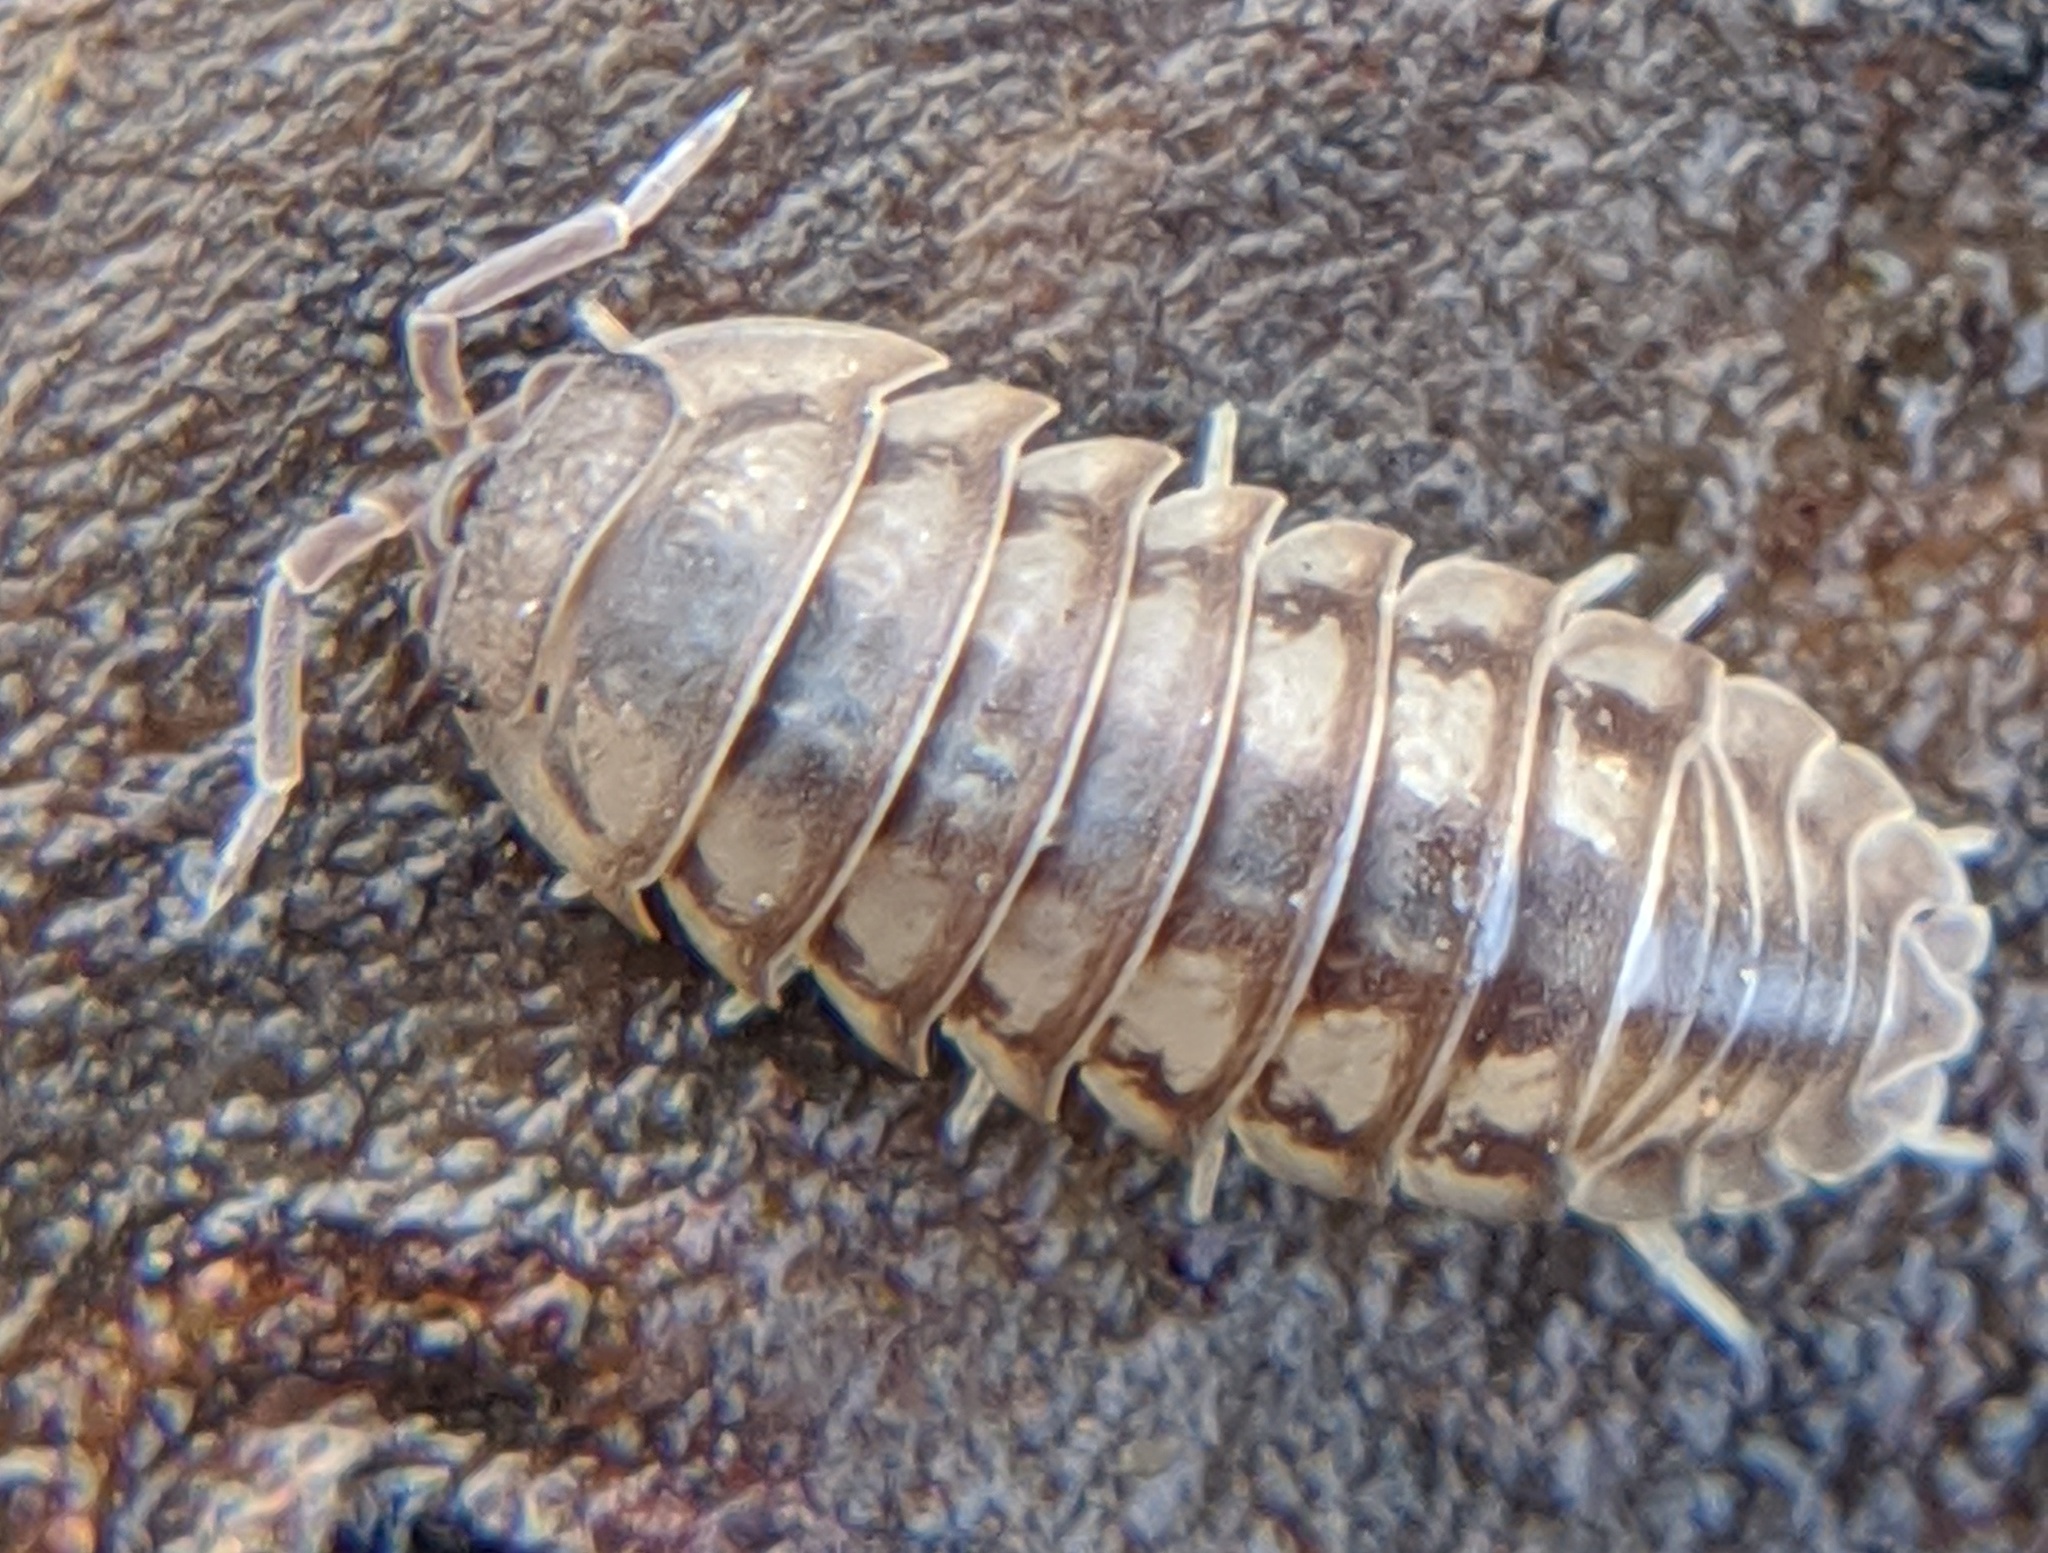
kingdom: Animalia
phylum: Arthropoda
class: Malacostraca
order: Isopoda
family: Armadillidiidae
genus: Armadillidium
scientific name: Armadillidium nasatum
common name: Isopod
